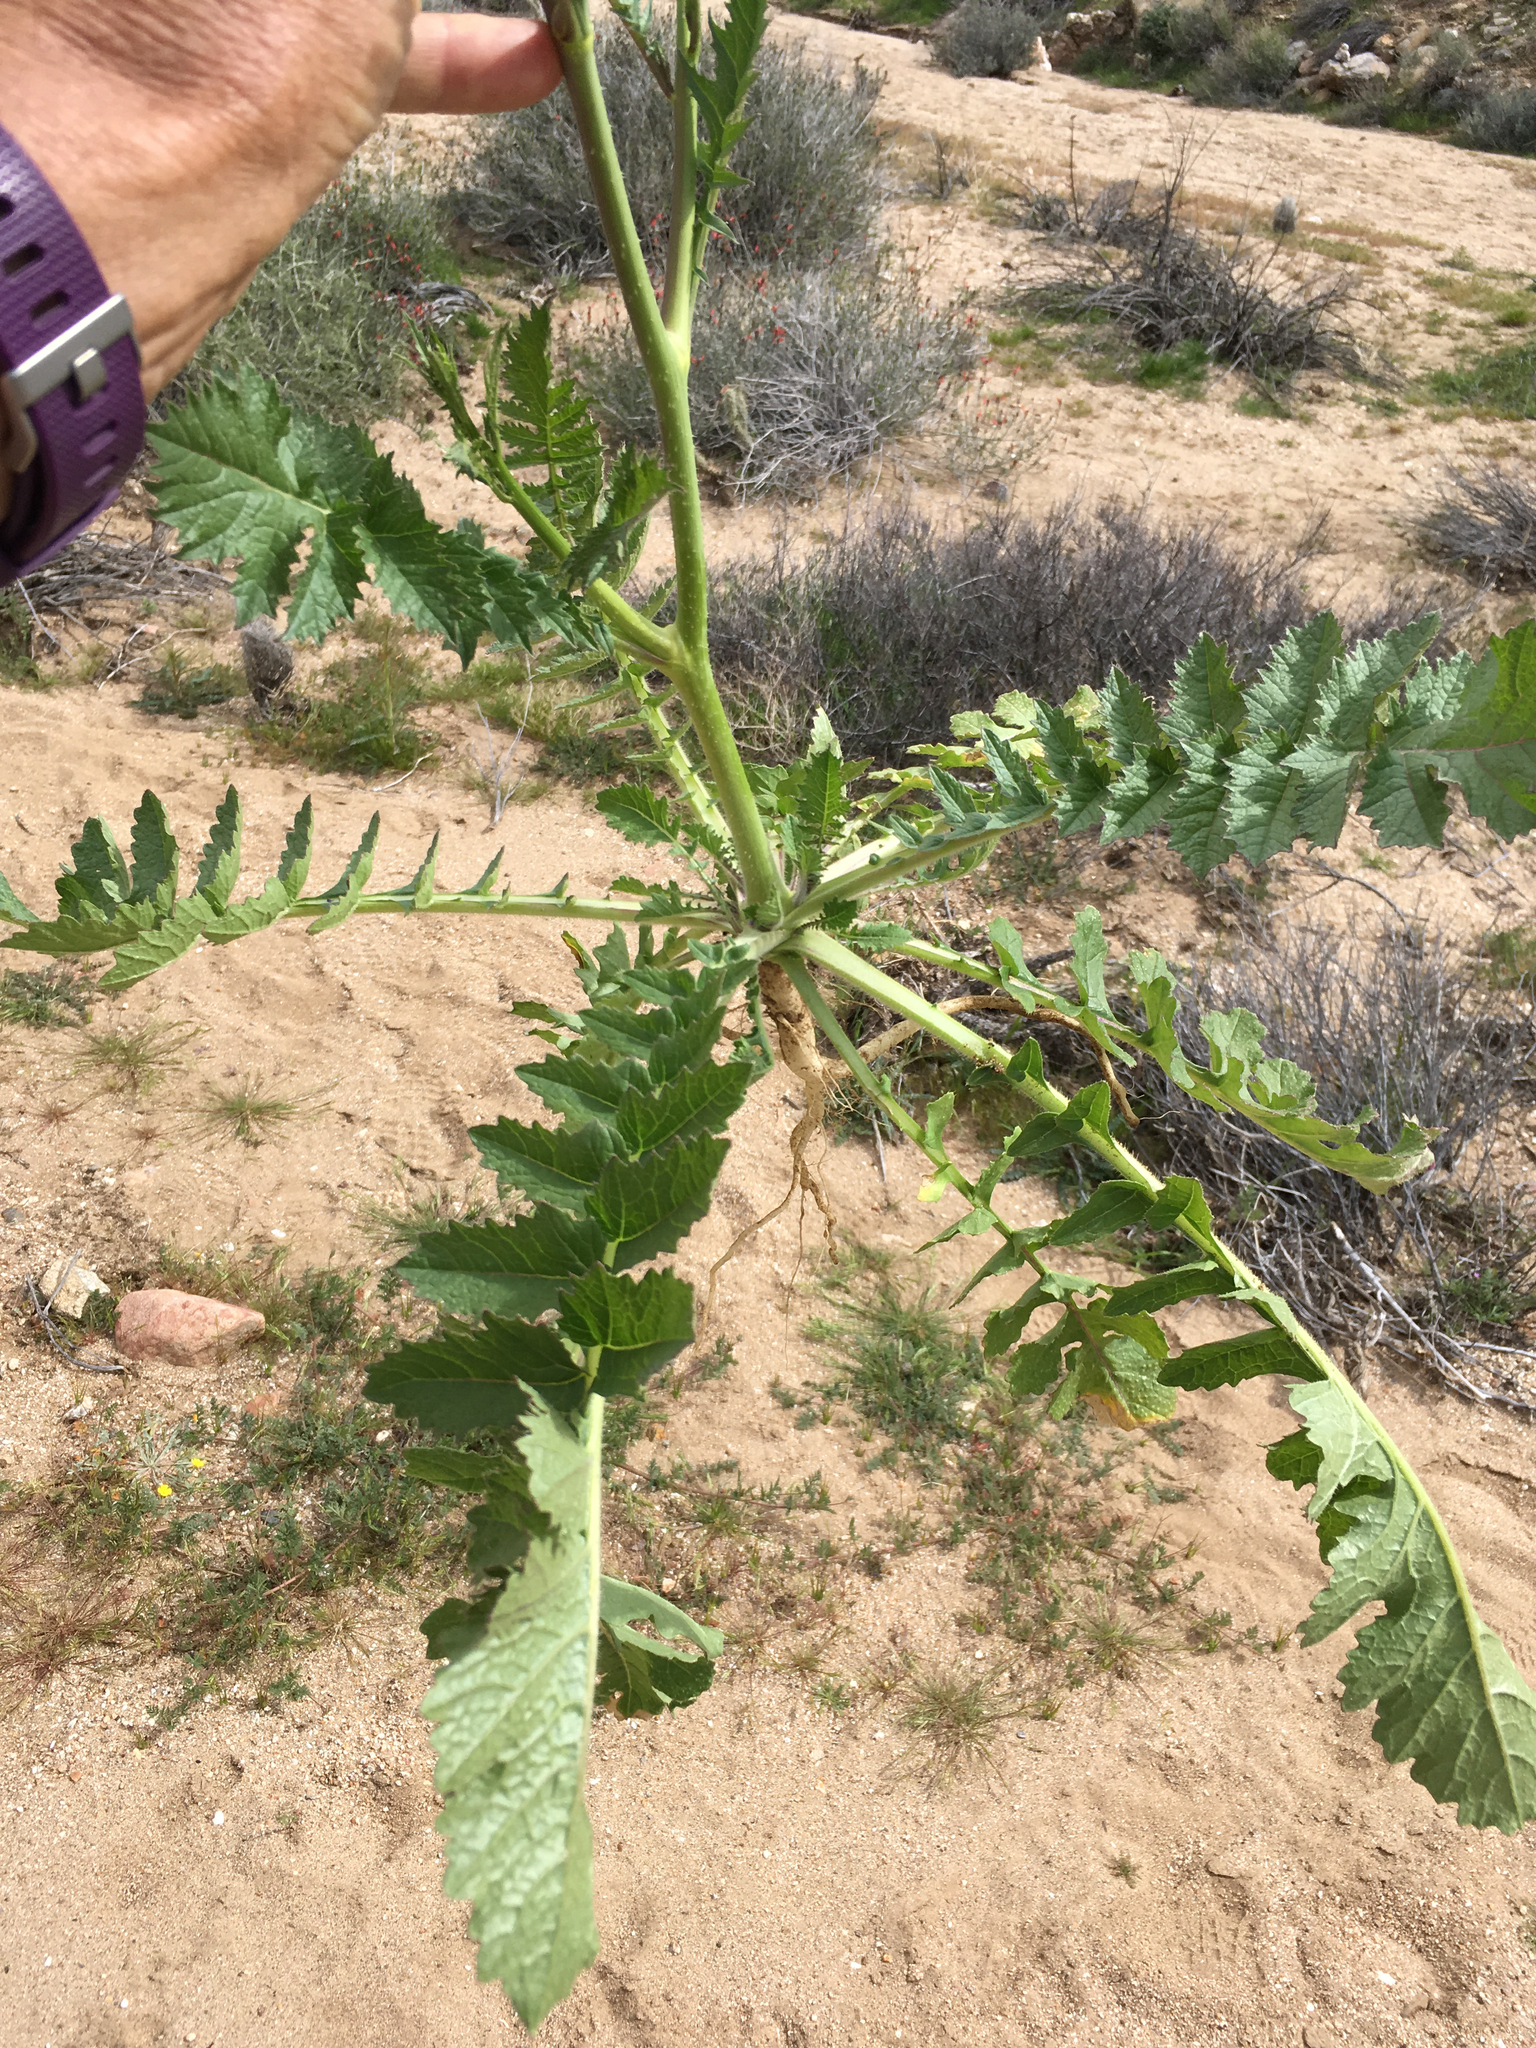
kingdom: Plantae
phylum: Tracheophyta
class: Magnoliopsida
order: Brassicales
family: Brassicaceae
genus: Brassica
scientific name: Brassica tournefortii
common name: Pale cabbage
